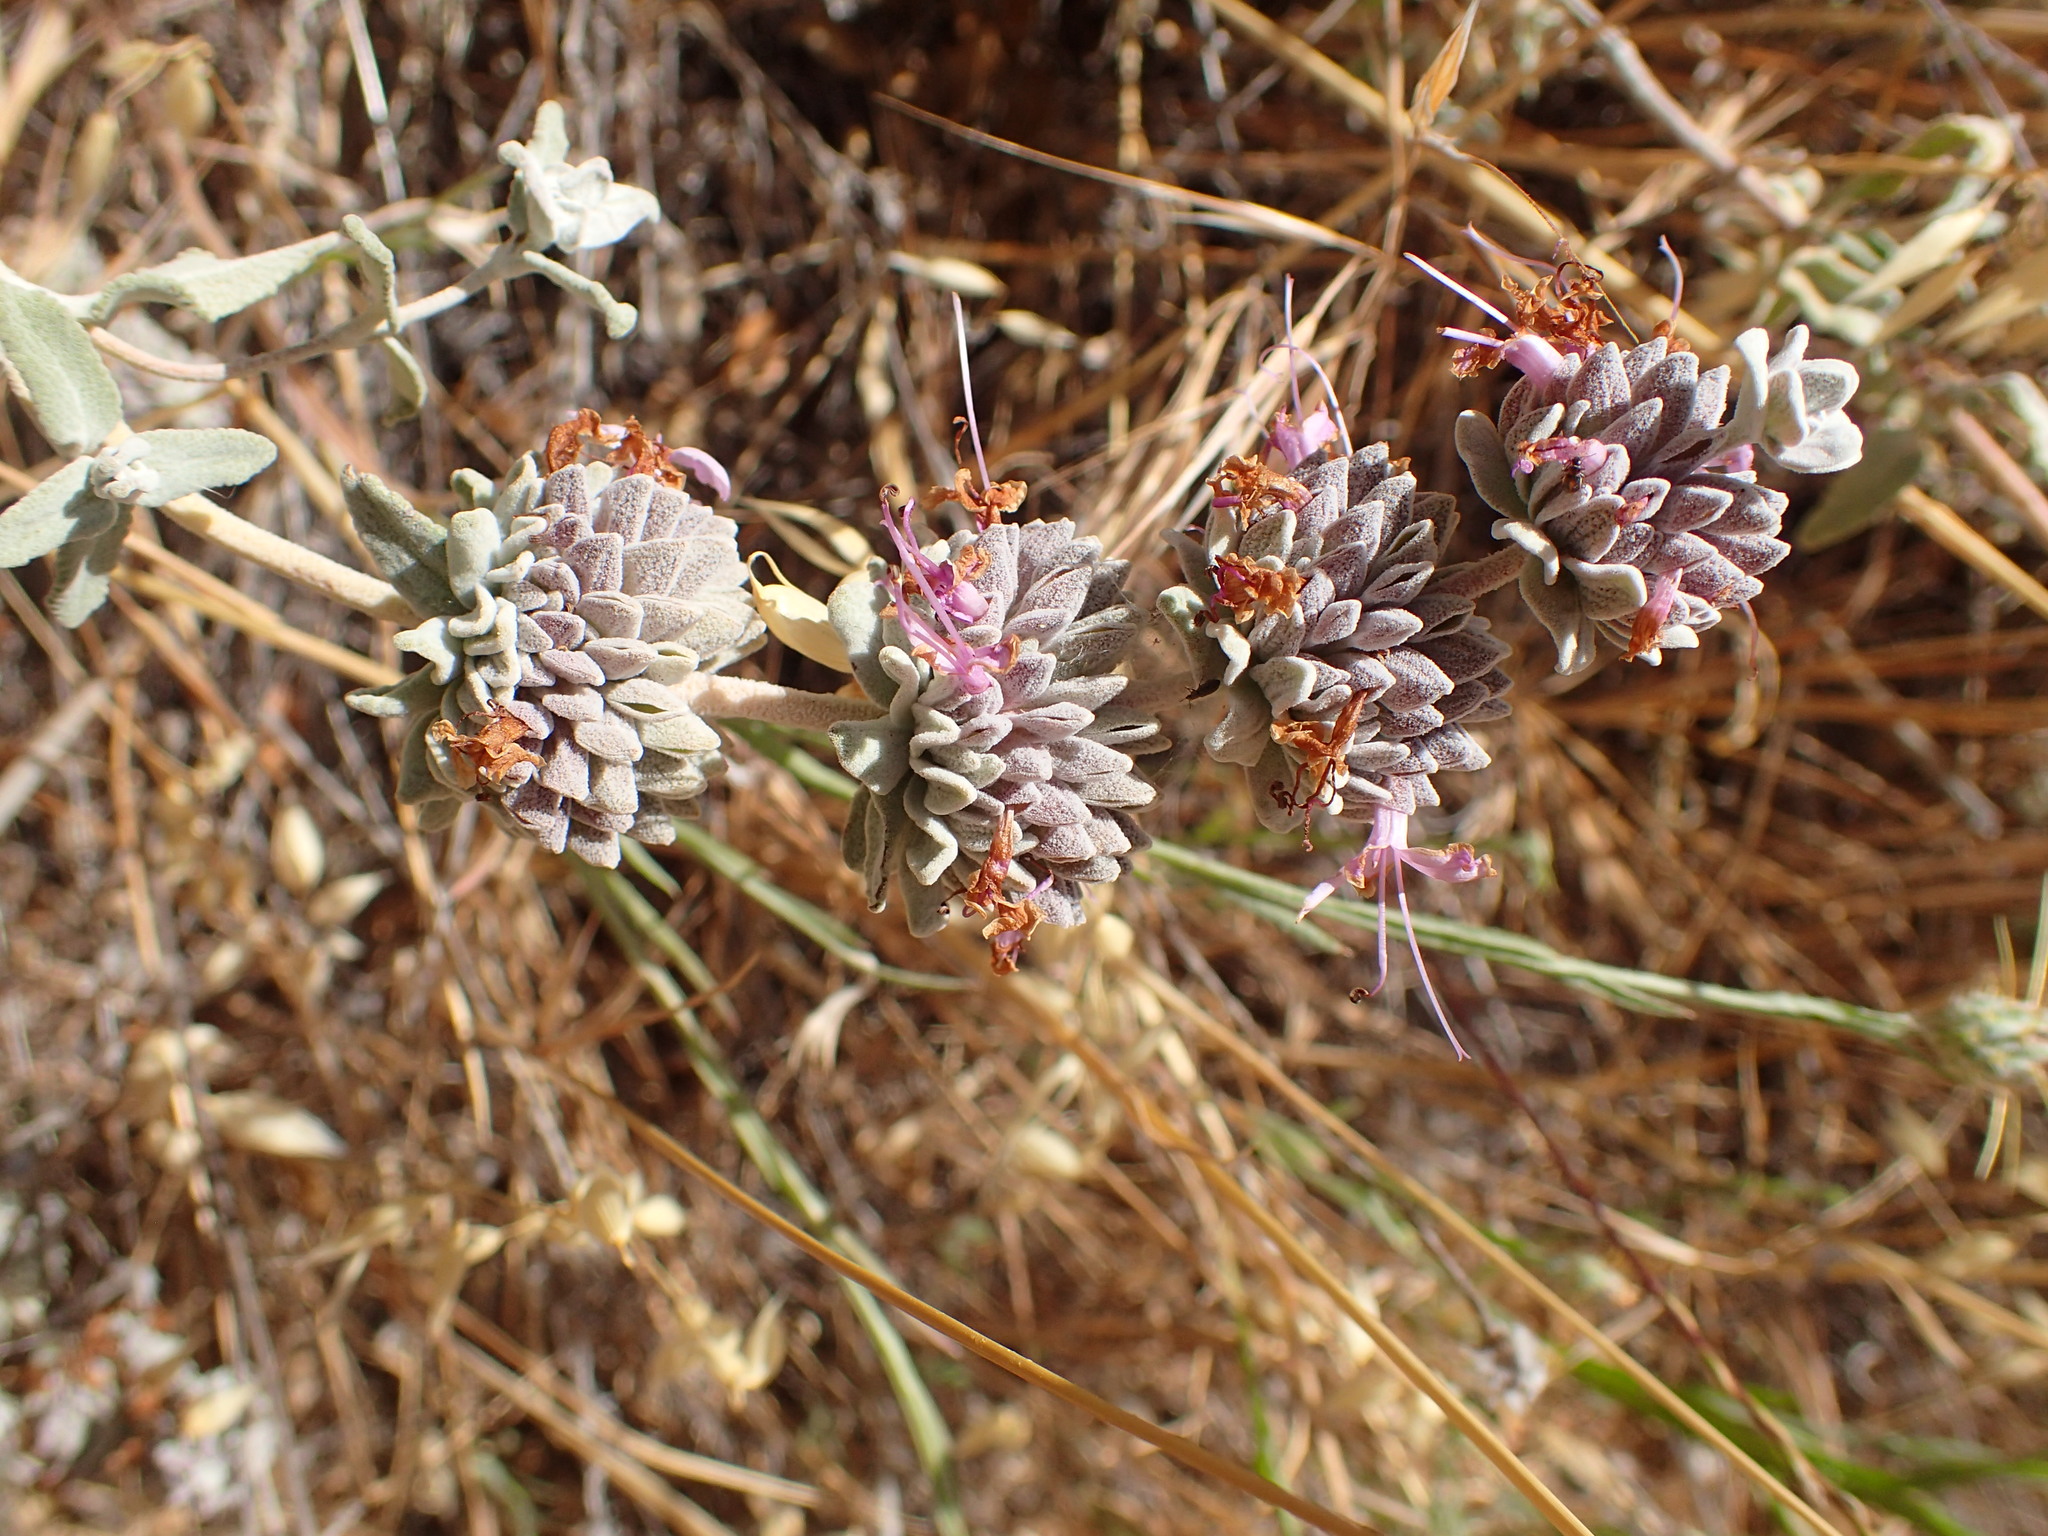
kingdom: Plantae
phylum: Tracheophyta
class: Magnoliopsida
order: Lamiales
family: Lamiaceae
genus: Salvia
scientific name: Salvia leucophylla
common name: Purple sage
